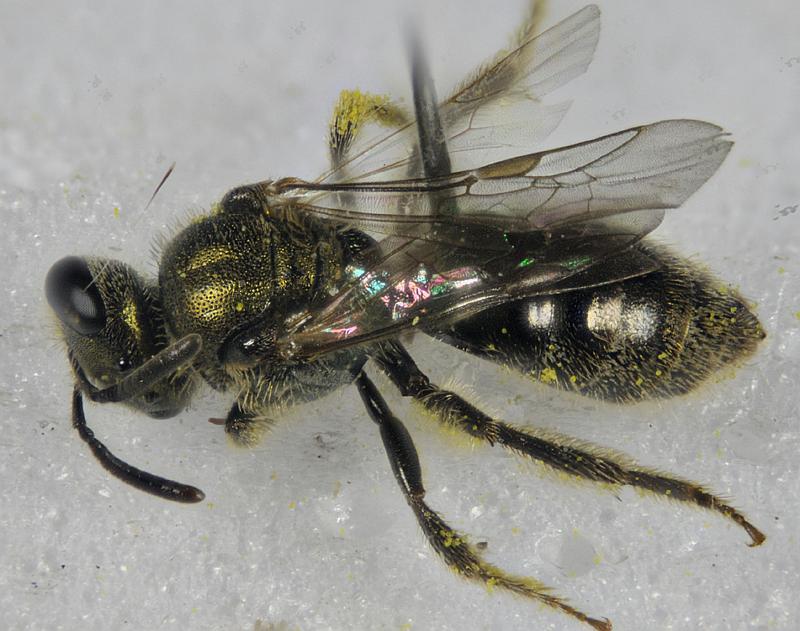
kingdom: Animalia
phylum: Arthropoda
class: Insecta
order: Hymenoptera
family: Halictidae
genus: Lasioglossum
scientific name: Lasioglossum ellisiae
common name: Ellis's sweat bee
